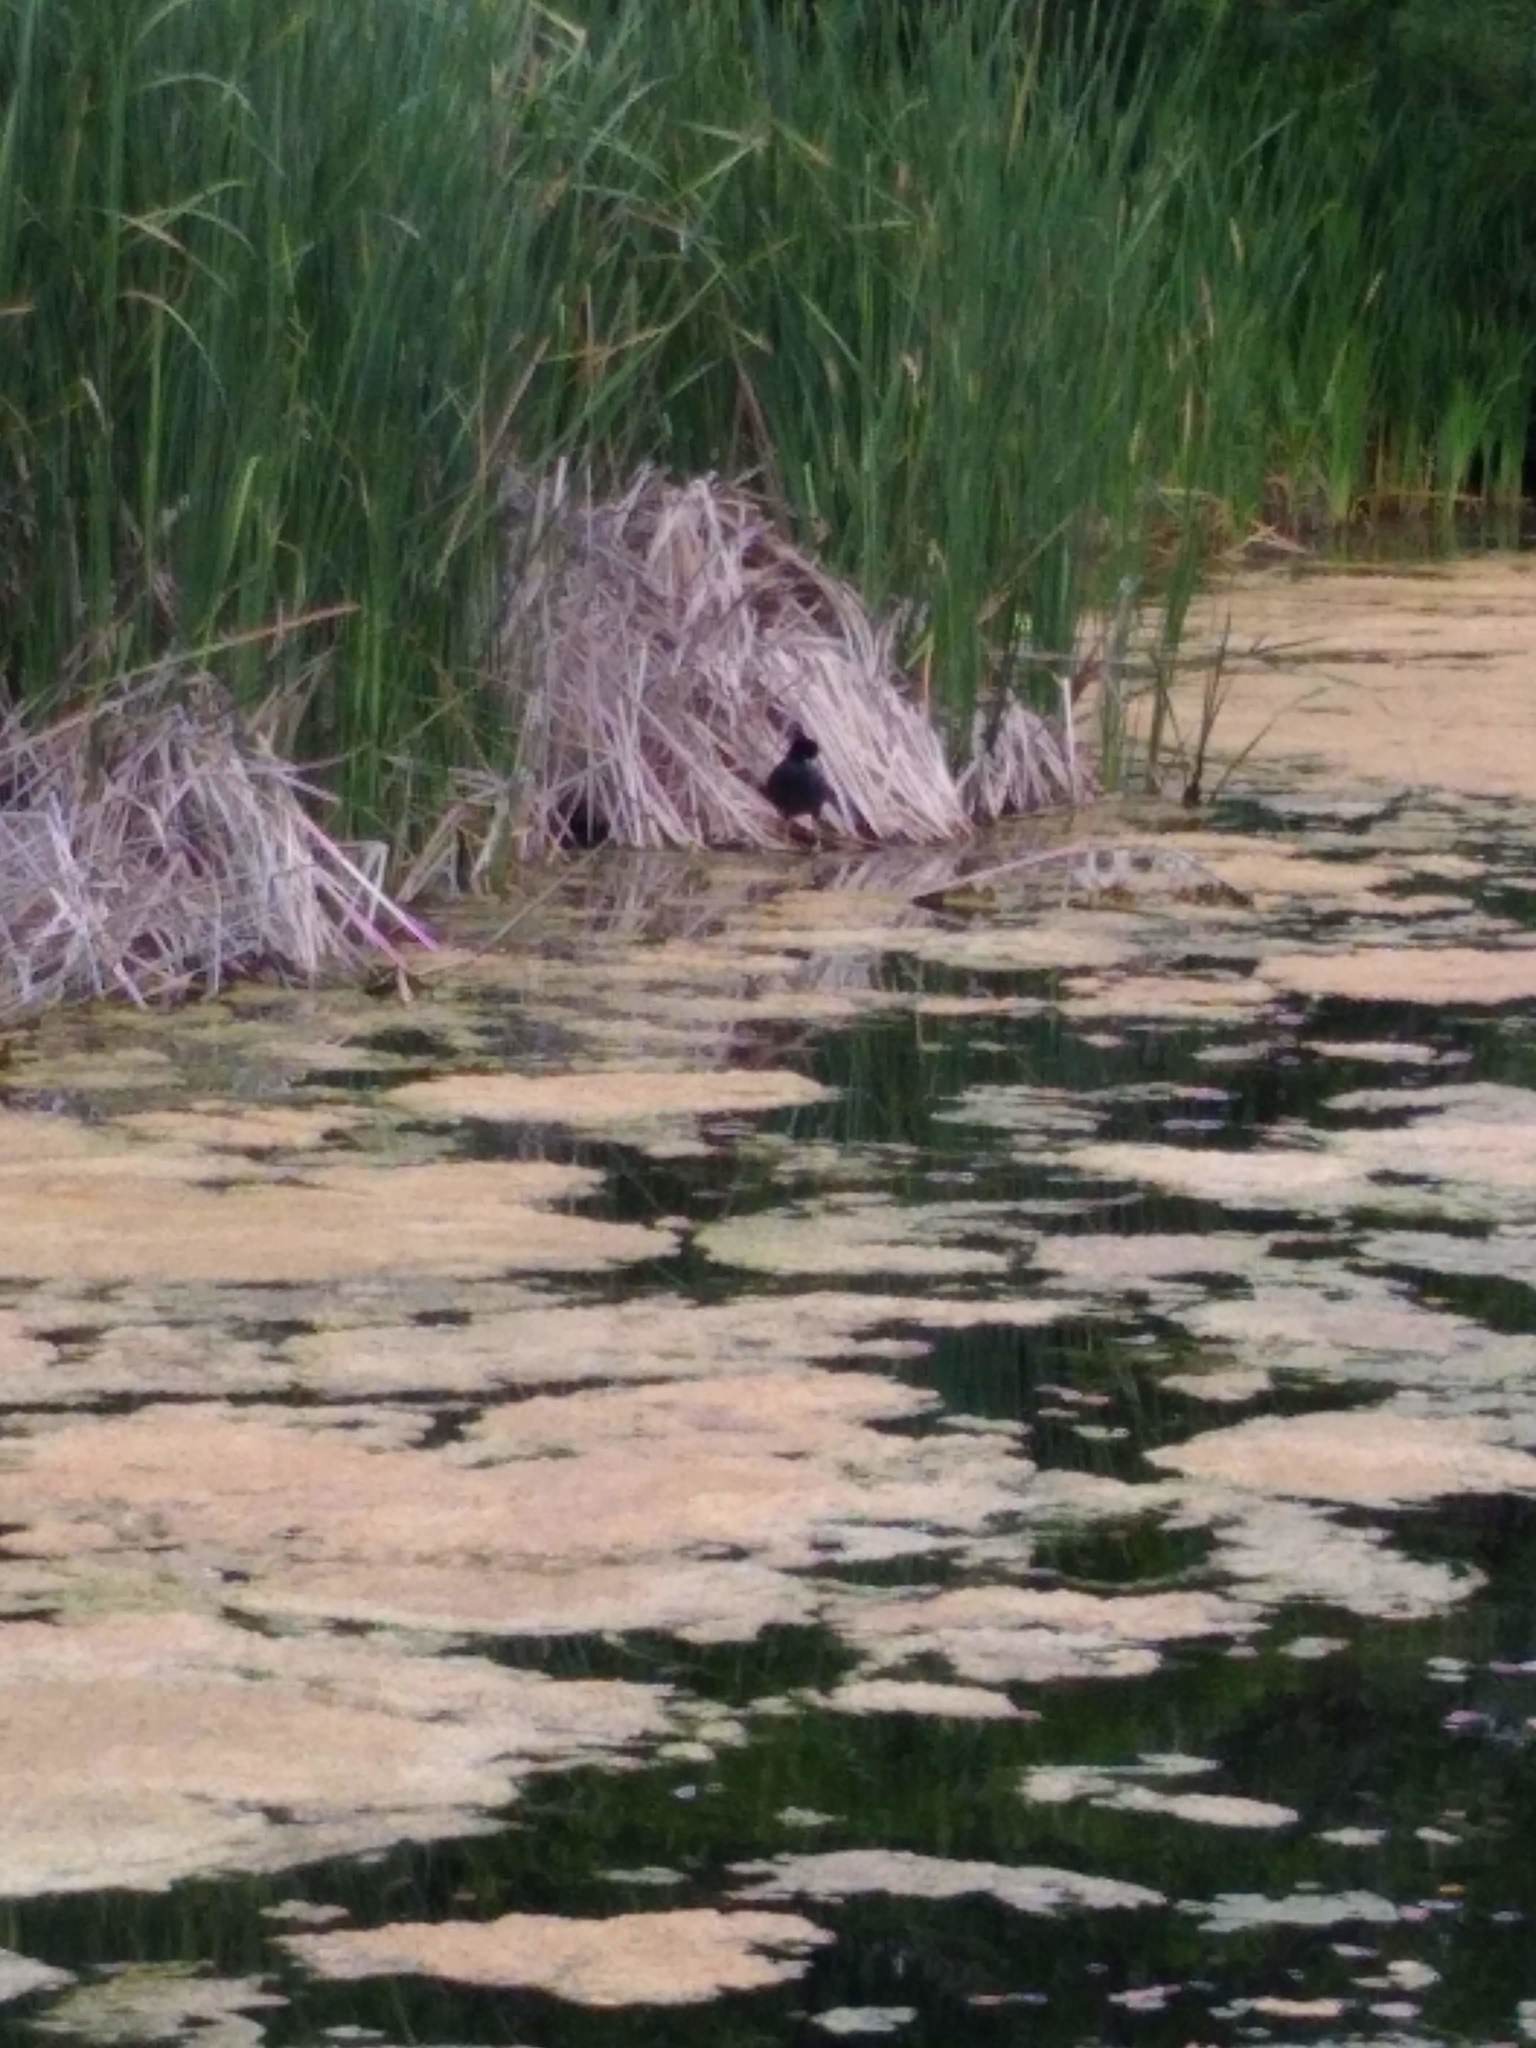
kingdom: Animalia
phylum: Chordata
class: Aves
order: Gruiformes
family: Rallidae
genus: Fulica
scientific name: Fulica americana
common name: American coot
